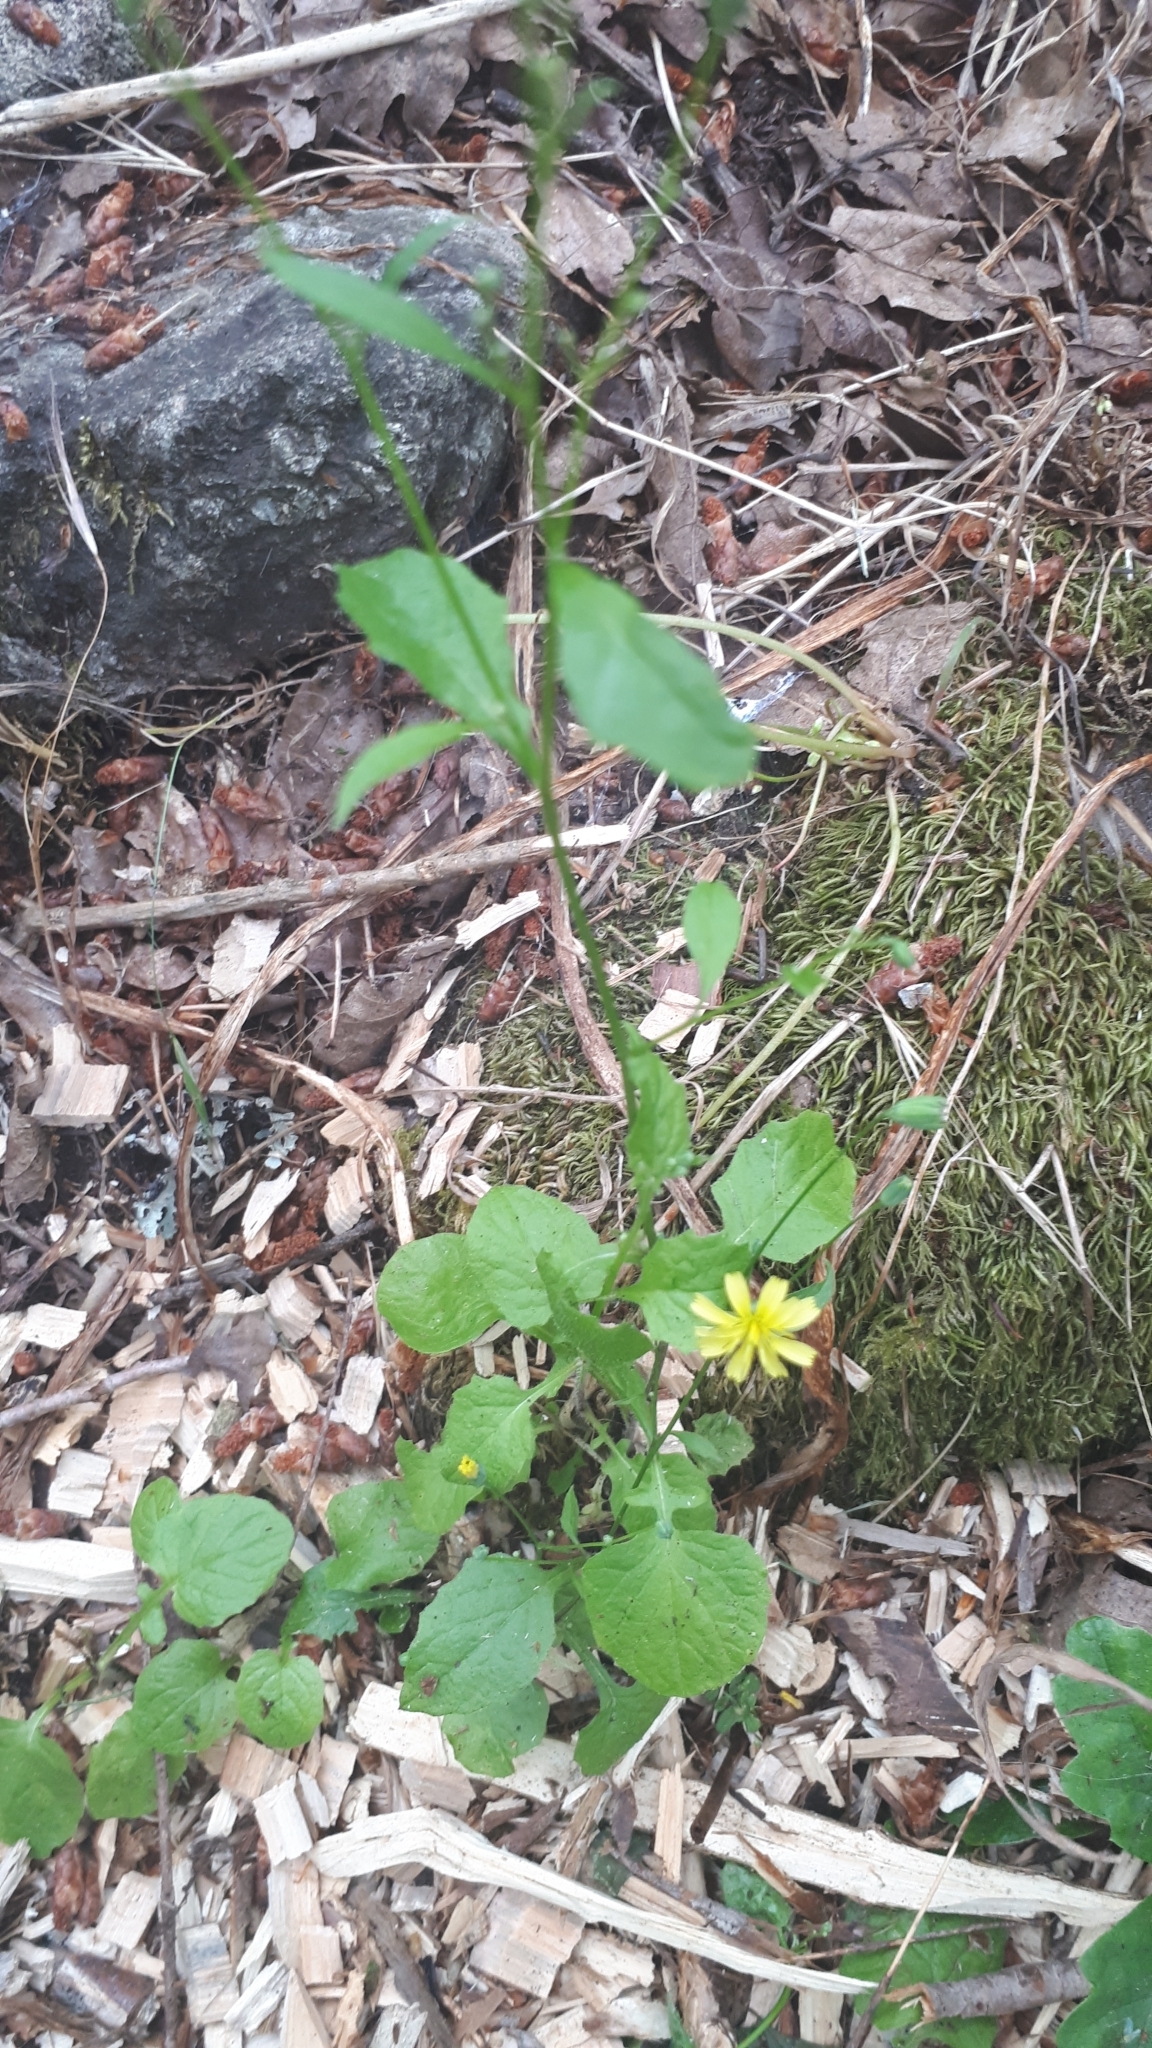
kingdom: Plantae
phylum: Tracheophyta
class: Magnoliopsida
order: Asterales
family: Asteraceae
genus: Lapsana
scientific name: Lapsana communis
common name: Nipplewort
